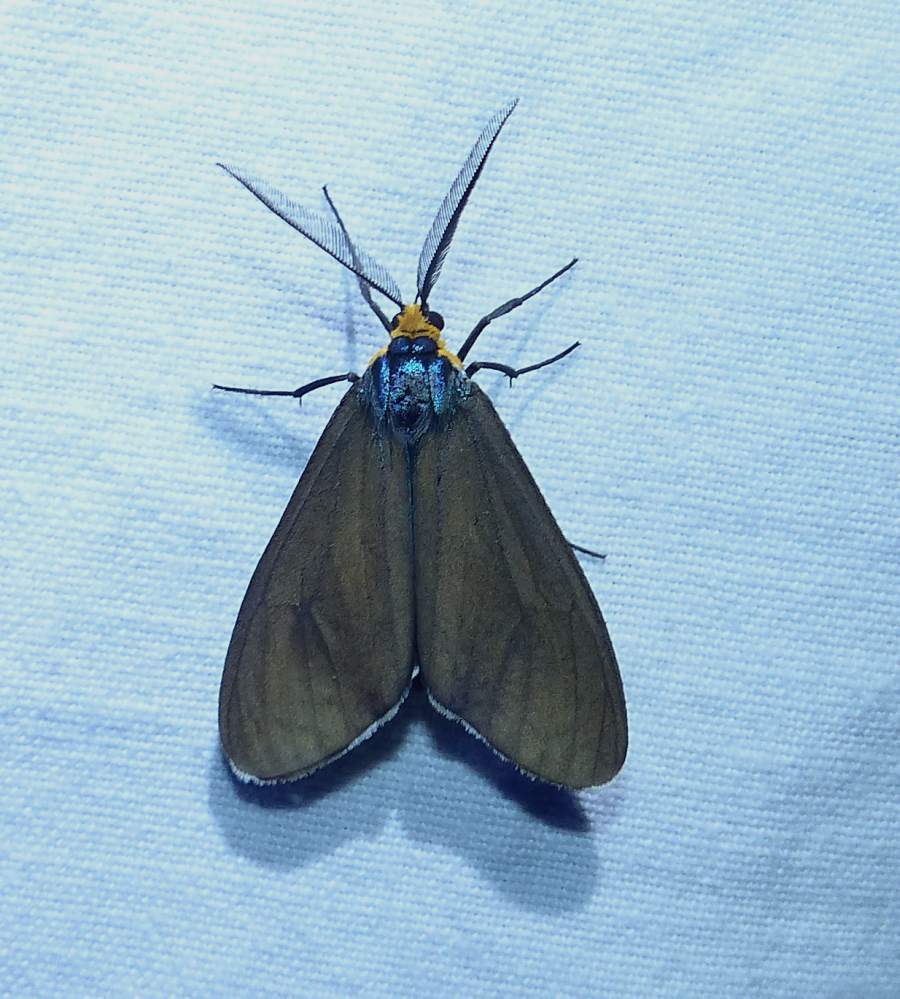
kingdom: Animalia
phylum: Arthropoda
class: Insecta
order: Lepidoptera
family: Erebidae
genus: Ctenucha
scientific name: Ctenucha virginica
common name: Virginia ctenucha moth
